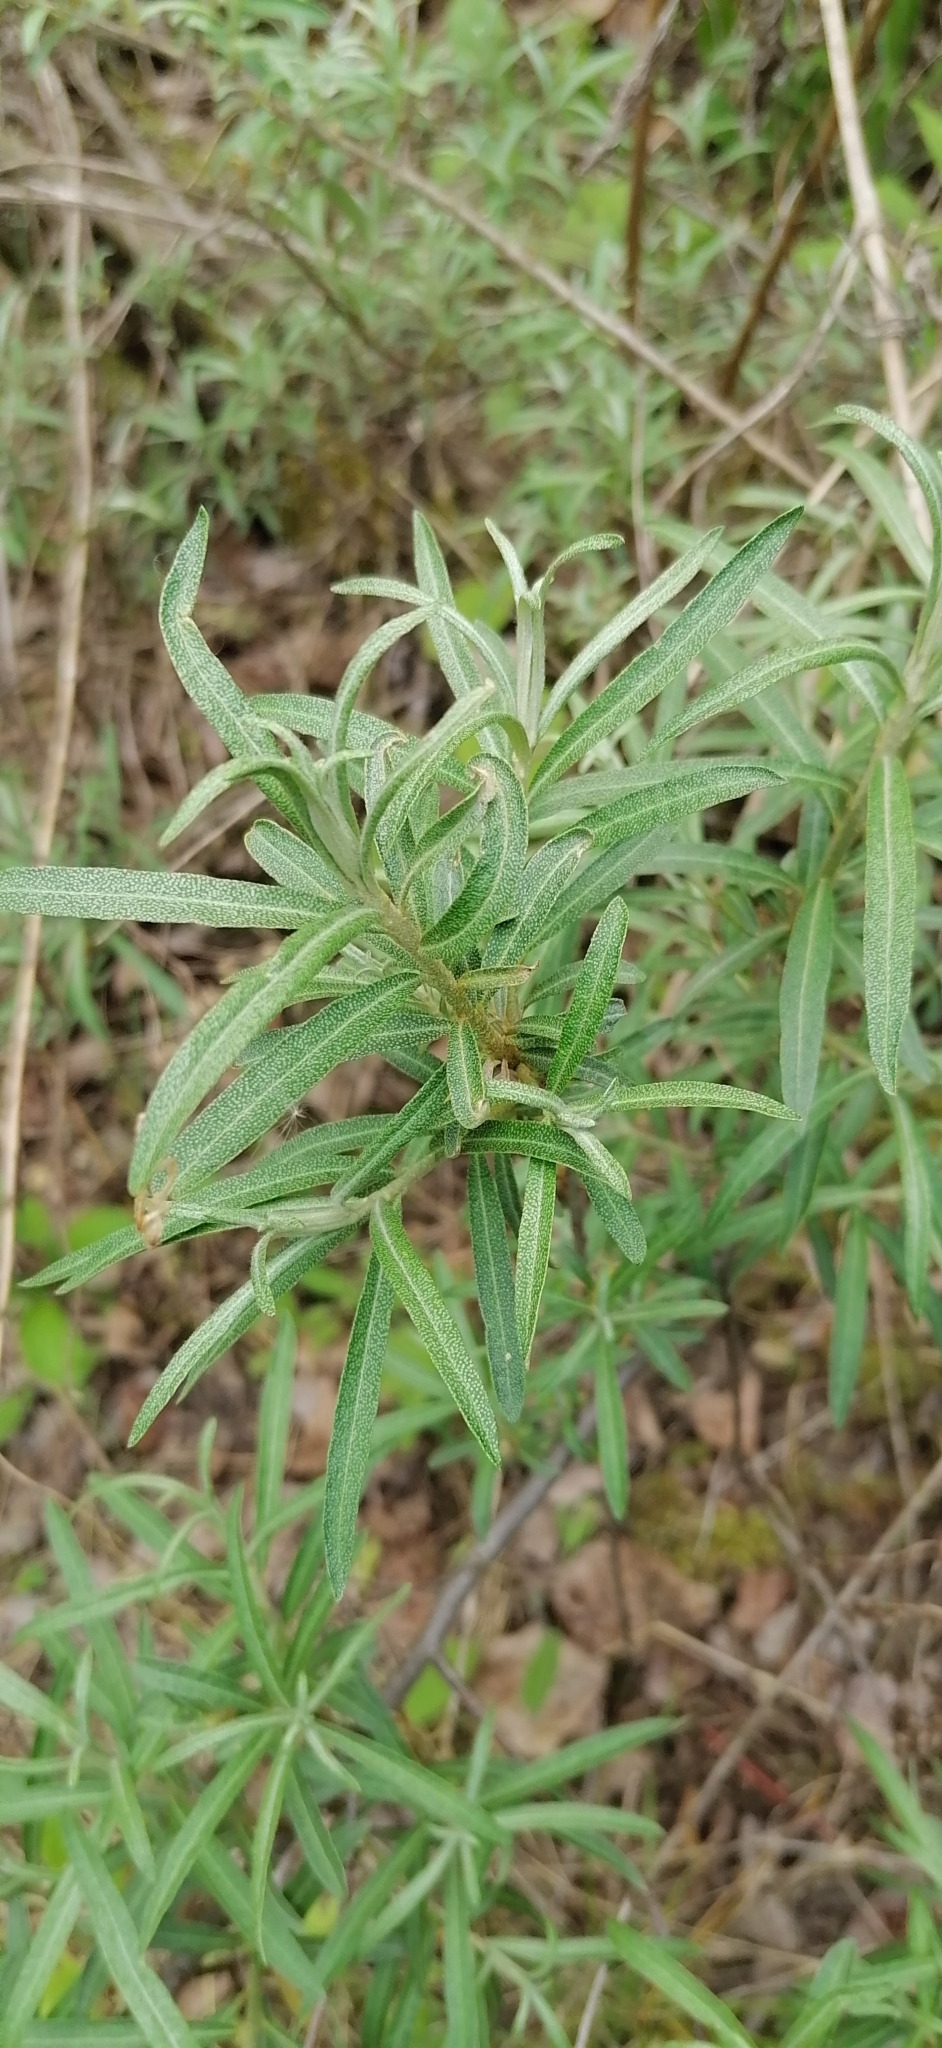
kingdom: Plantae
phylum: Tracheophyta
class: Magnoliopsida
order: Rosales
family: Elaeagnaceae
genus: Hippophae
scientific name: Hippophae rhamnoides
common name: Sea-buckthorn
